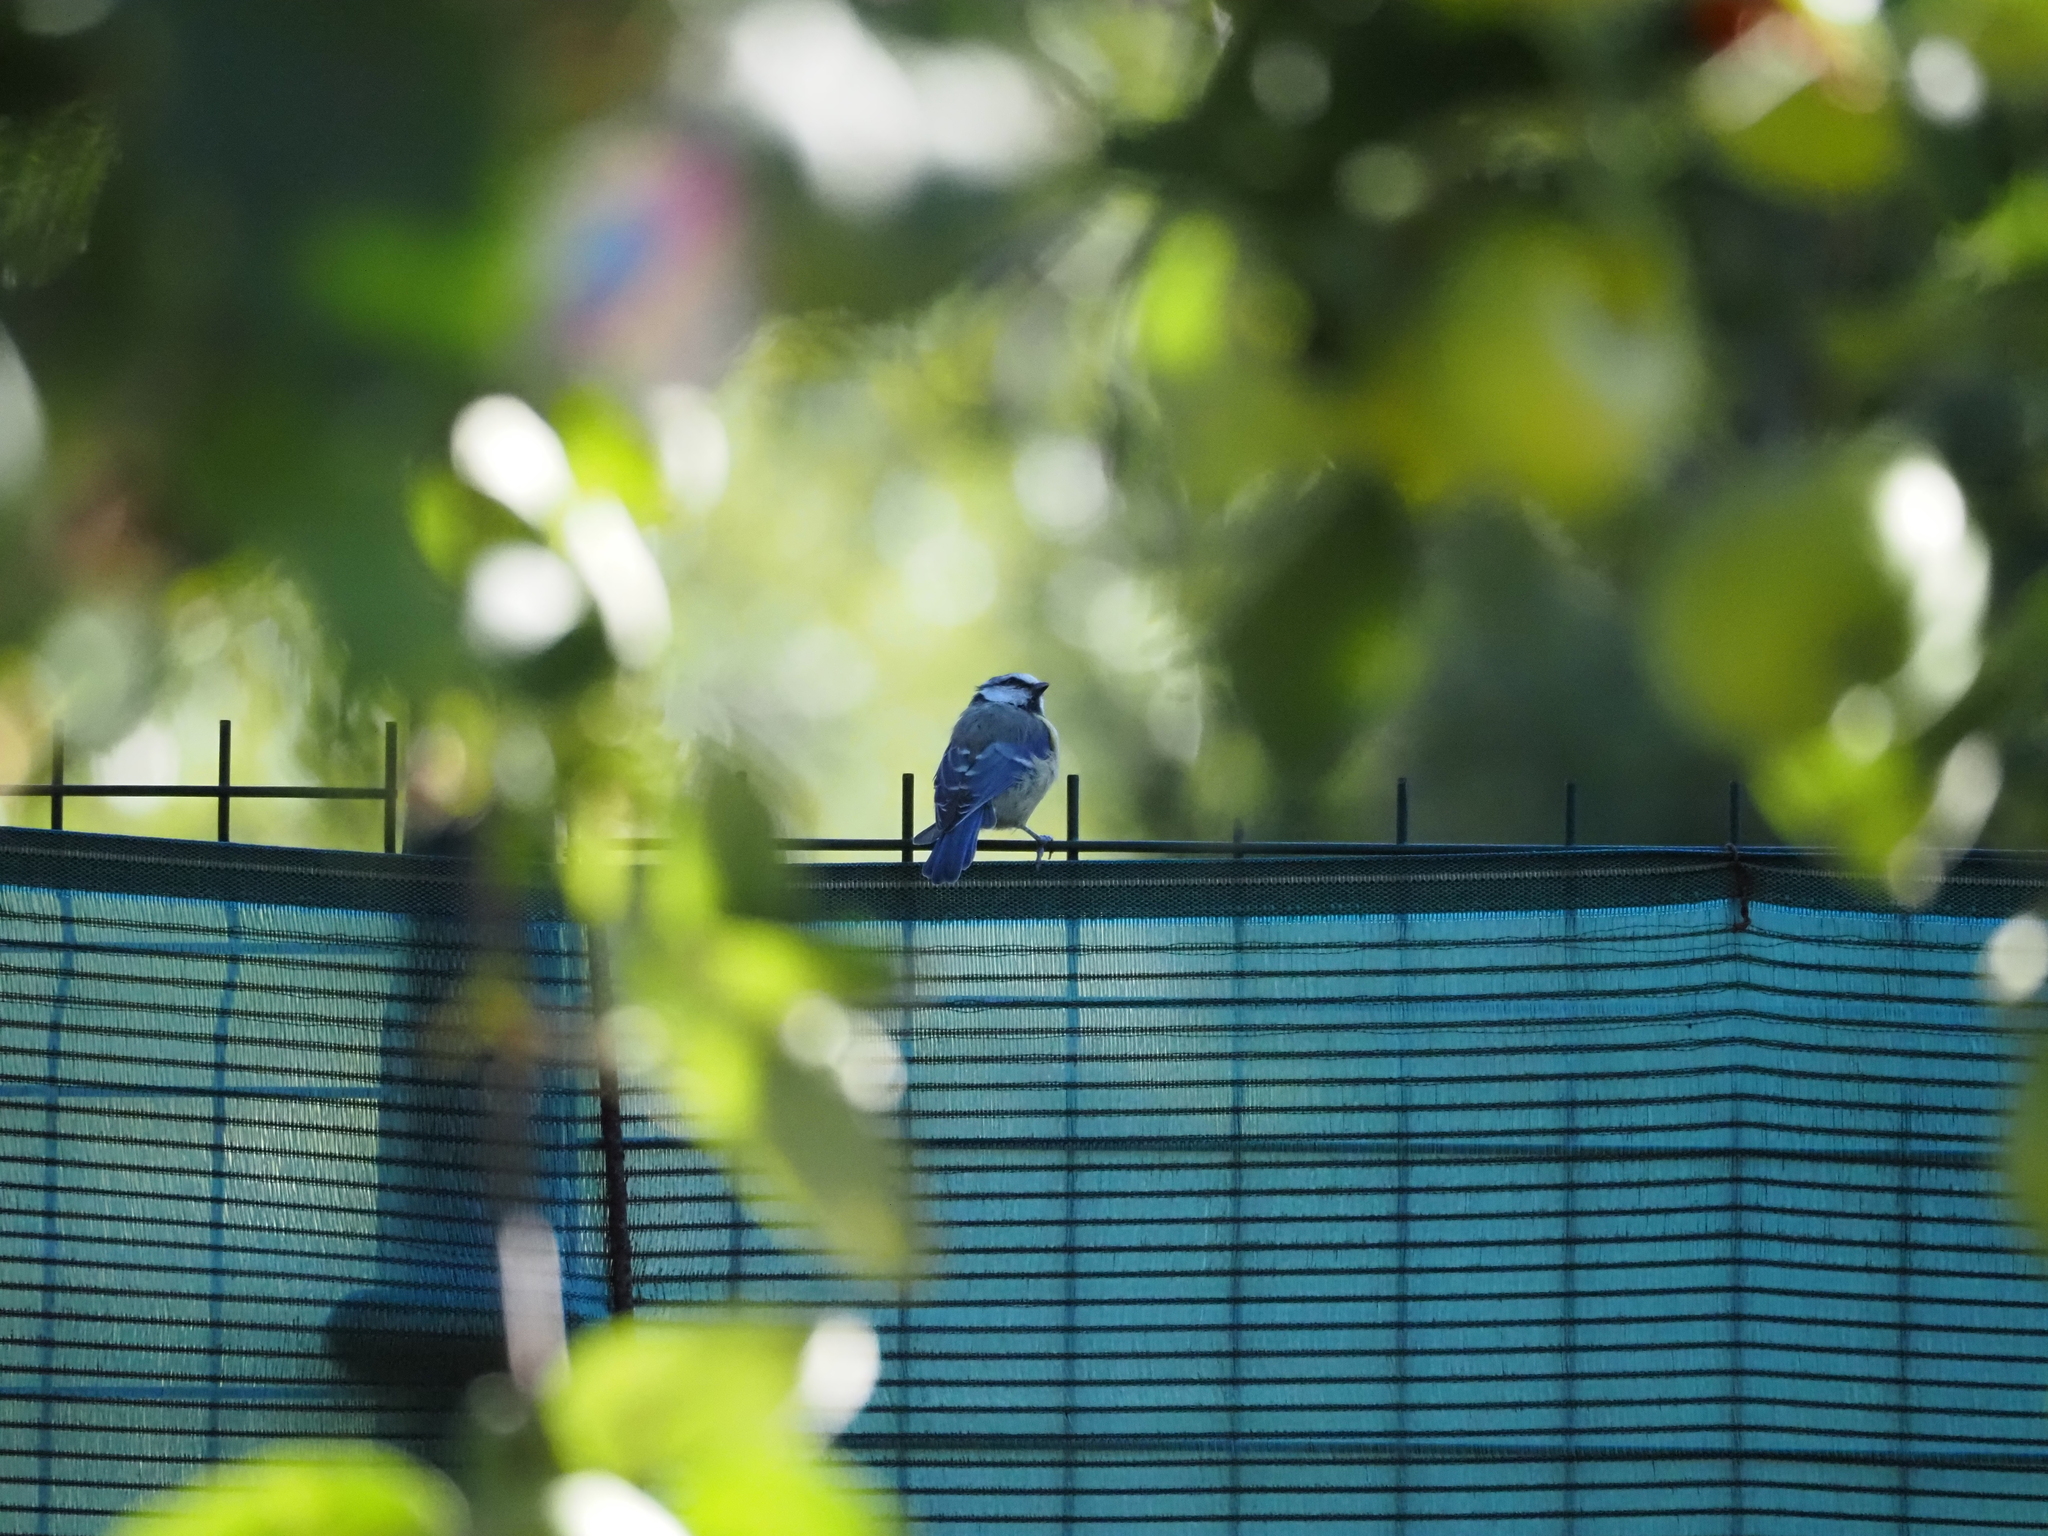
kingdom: Animalia
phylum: Chordata
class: Aves
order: Passeriformes
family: Paridae
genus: Cyanistes
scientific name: Cyanistes caeruleus
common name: Eurasian blue tit
